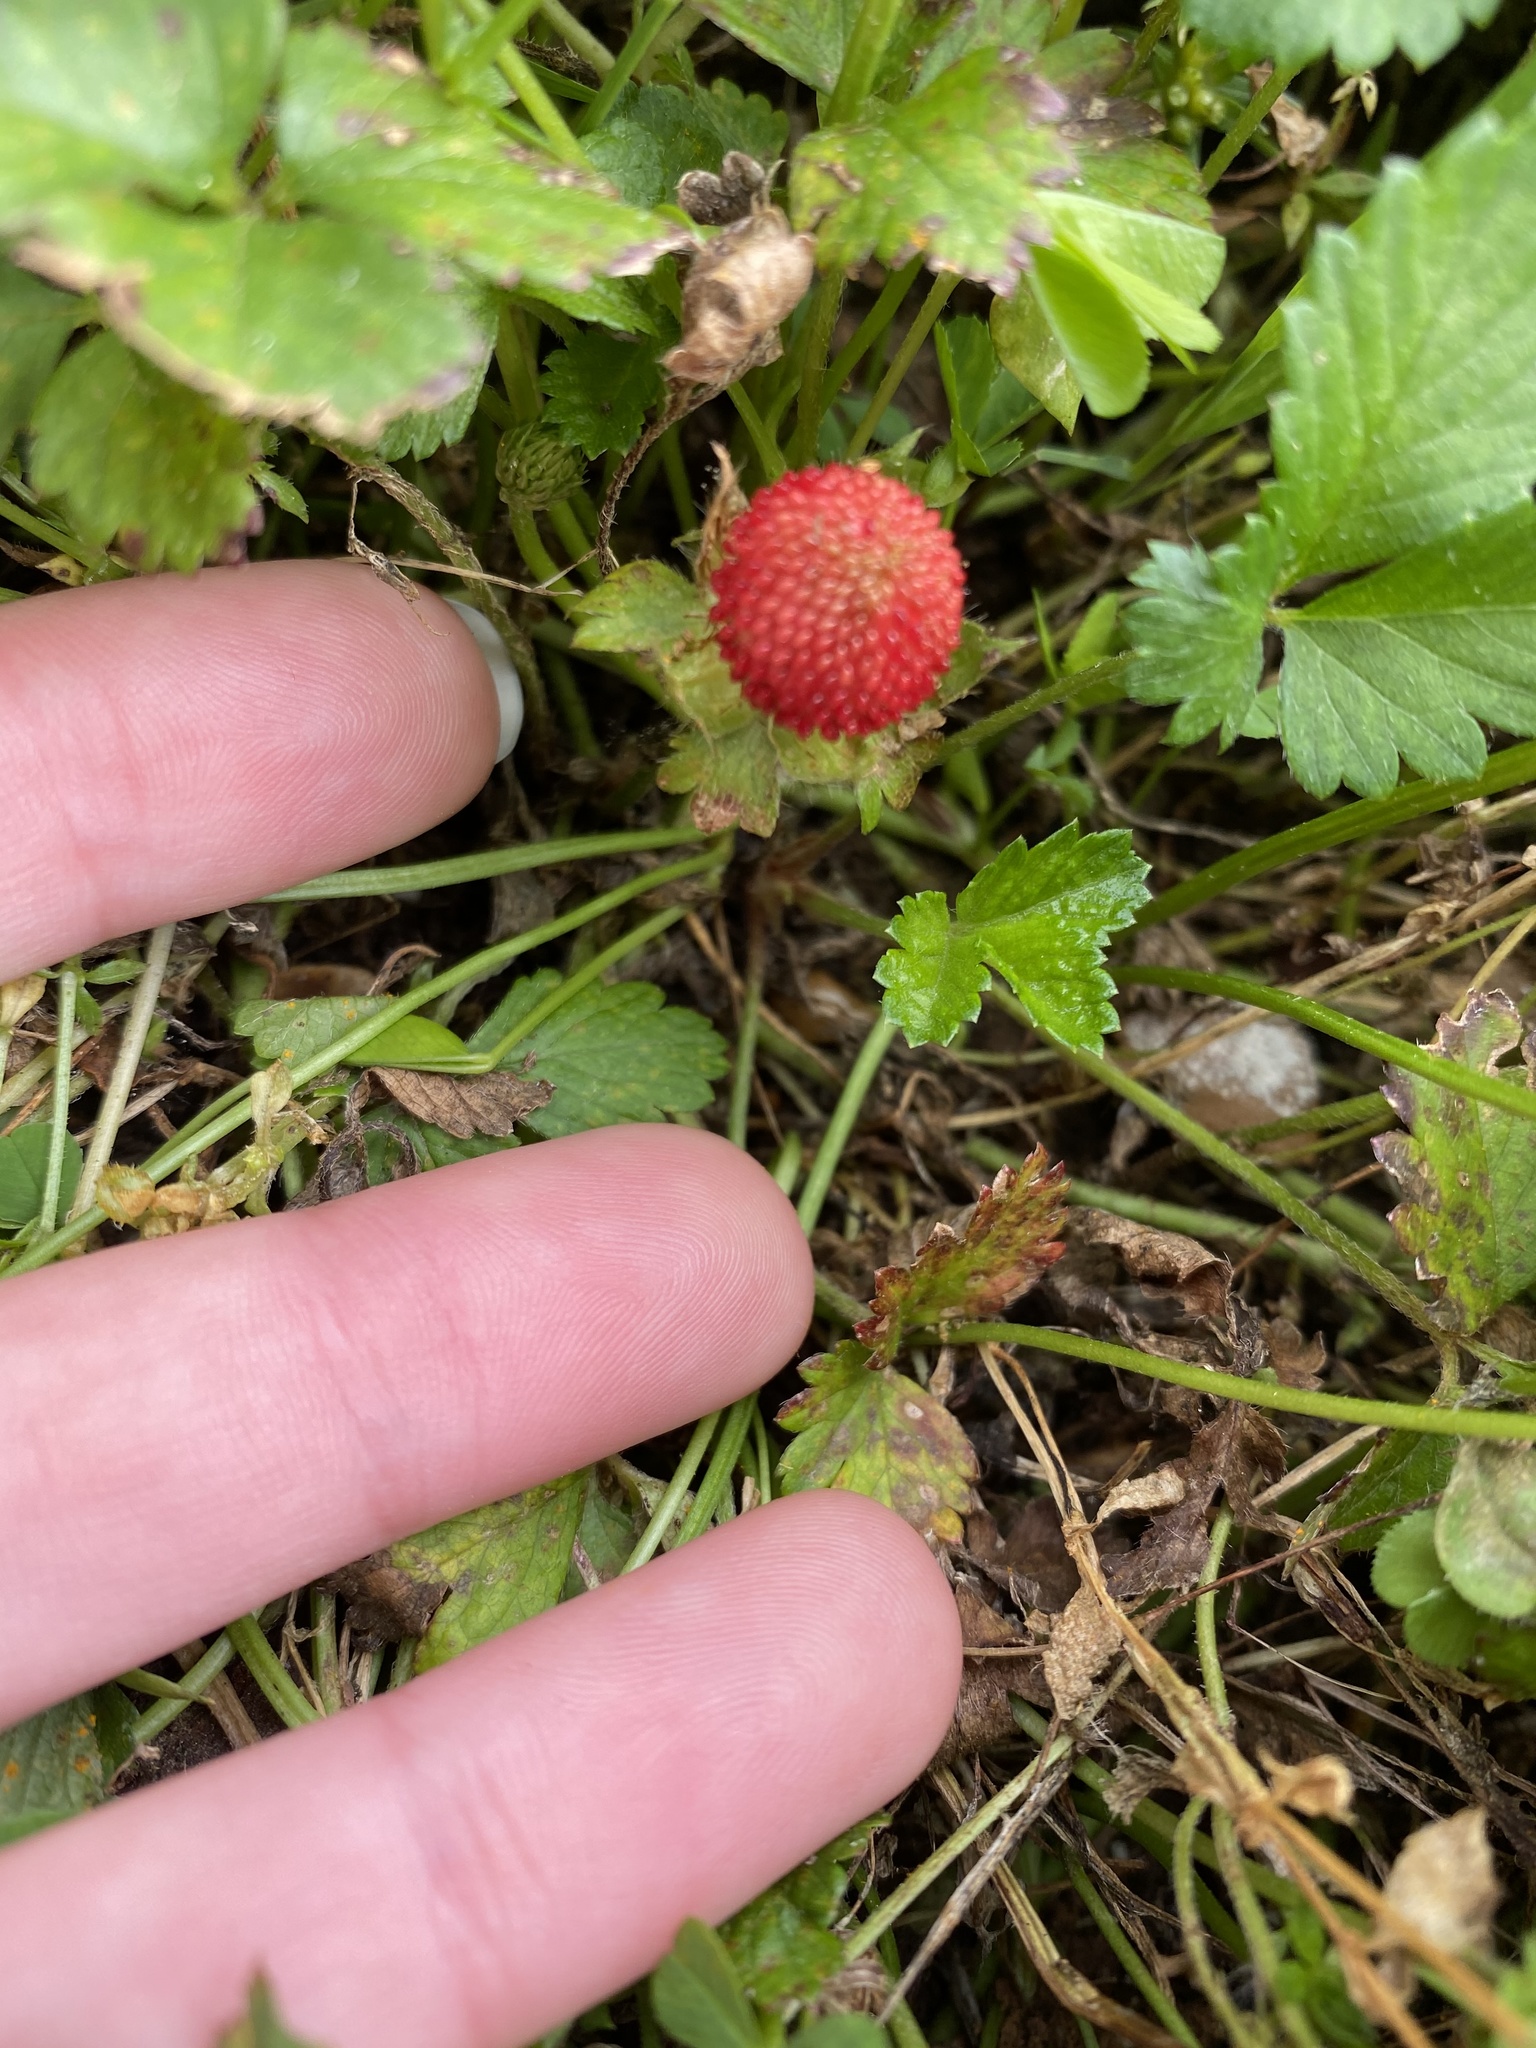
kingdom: Plantae
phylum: Tracheophyta
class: Magnoliopsida
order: Rosales
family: Rosaceae
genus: Potentilla
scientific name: Potentilla indica
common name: Yellow-flowered strawberry
